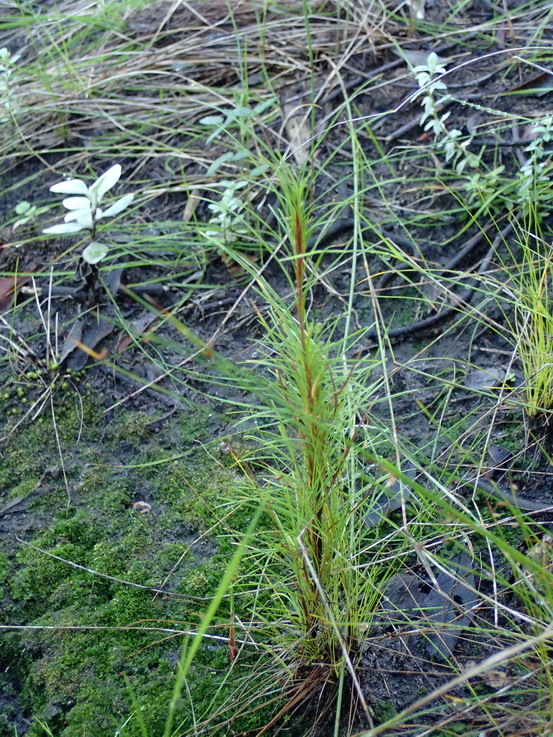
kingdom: Plantae
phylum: Tracheophyta
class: Liliopsida
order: Poales
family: Cyperaceae
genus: Ficinia
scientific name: Ficinia ramosissima
